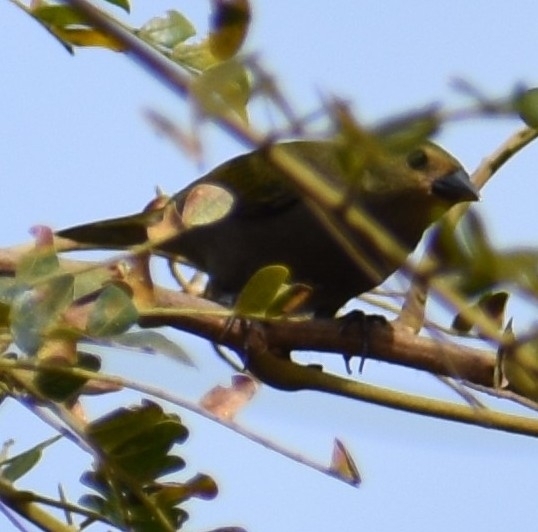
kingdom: Animalia
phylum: Chordata
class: Aves
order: Passeriformes
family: Estrildidae
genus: Mandingoa
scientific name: Mandingoa nitidula
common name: Green twinspot
